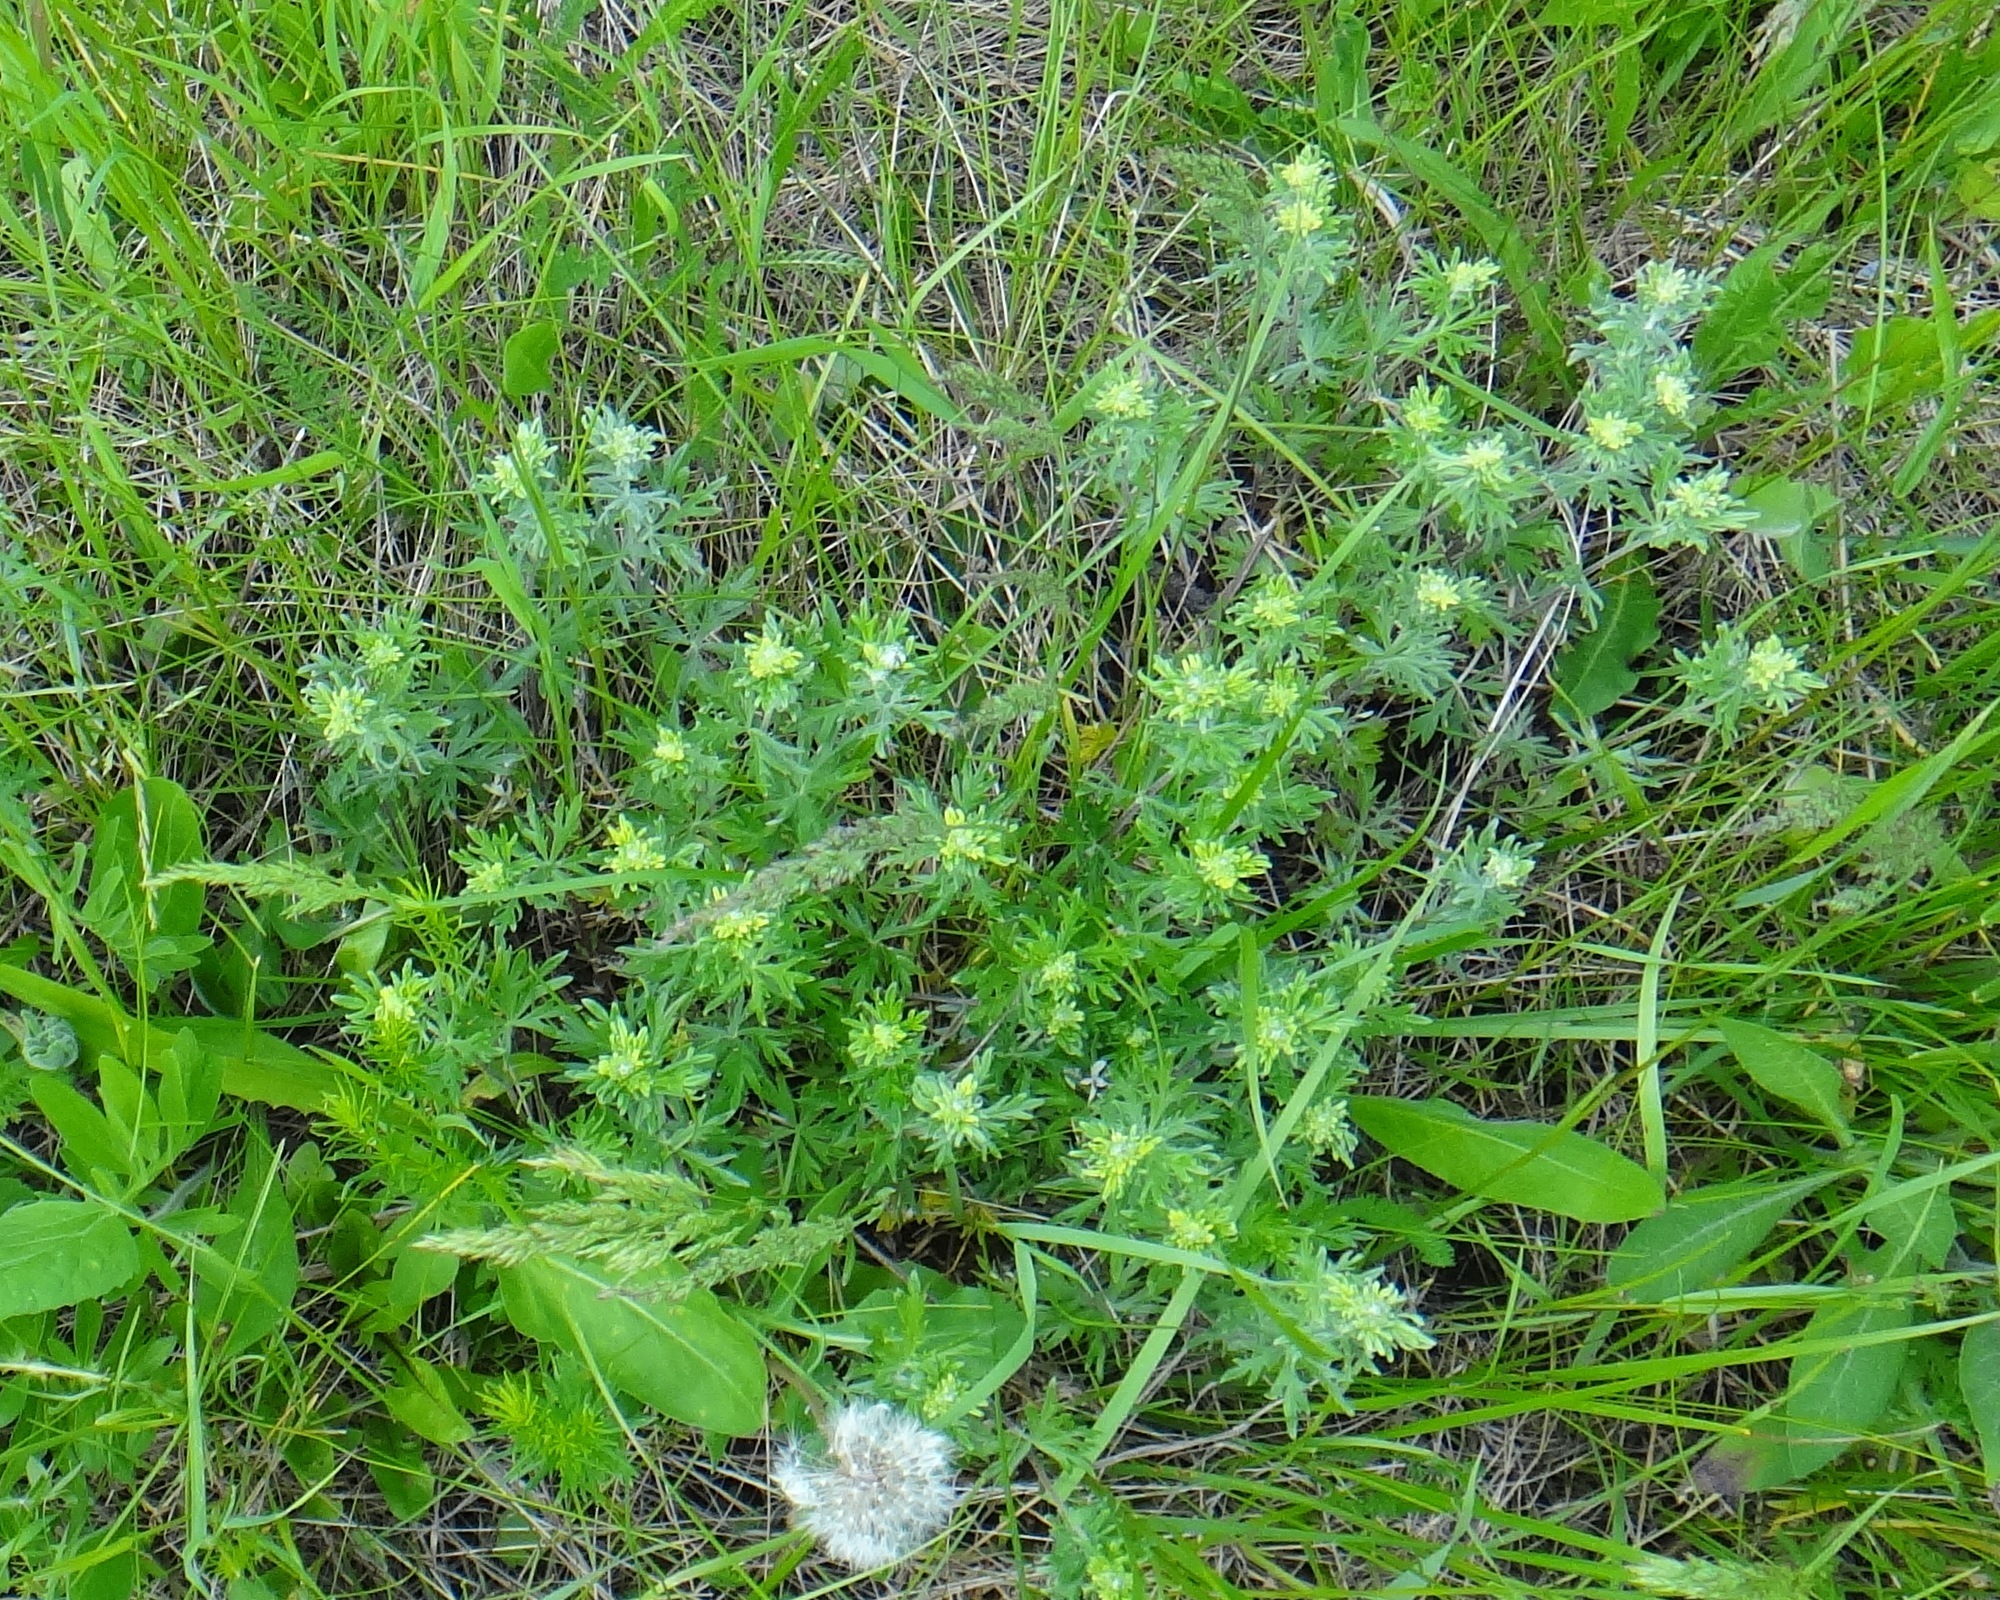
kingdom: Plantae
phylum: Tracheophyta
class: Magnoliopsida
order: Rosales
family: Rosaceae
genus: Potentilla
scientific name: Potentilla argentea
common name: Hoary cinquefoil
